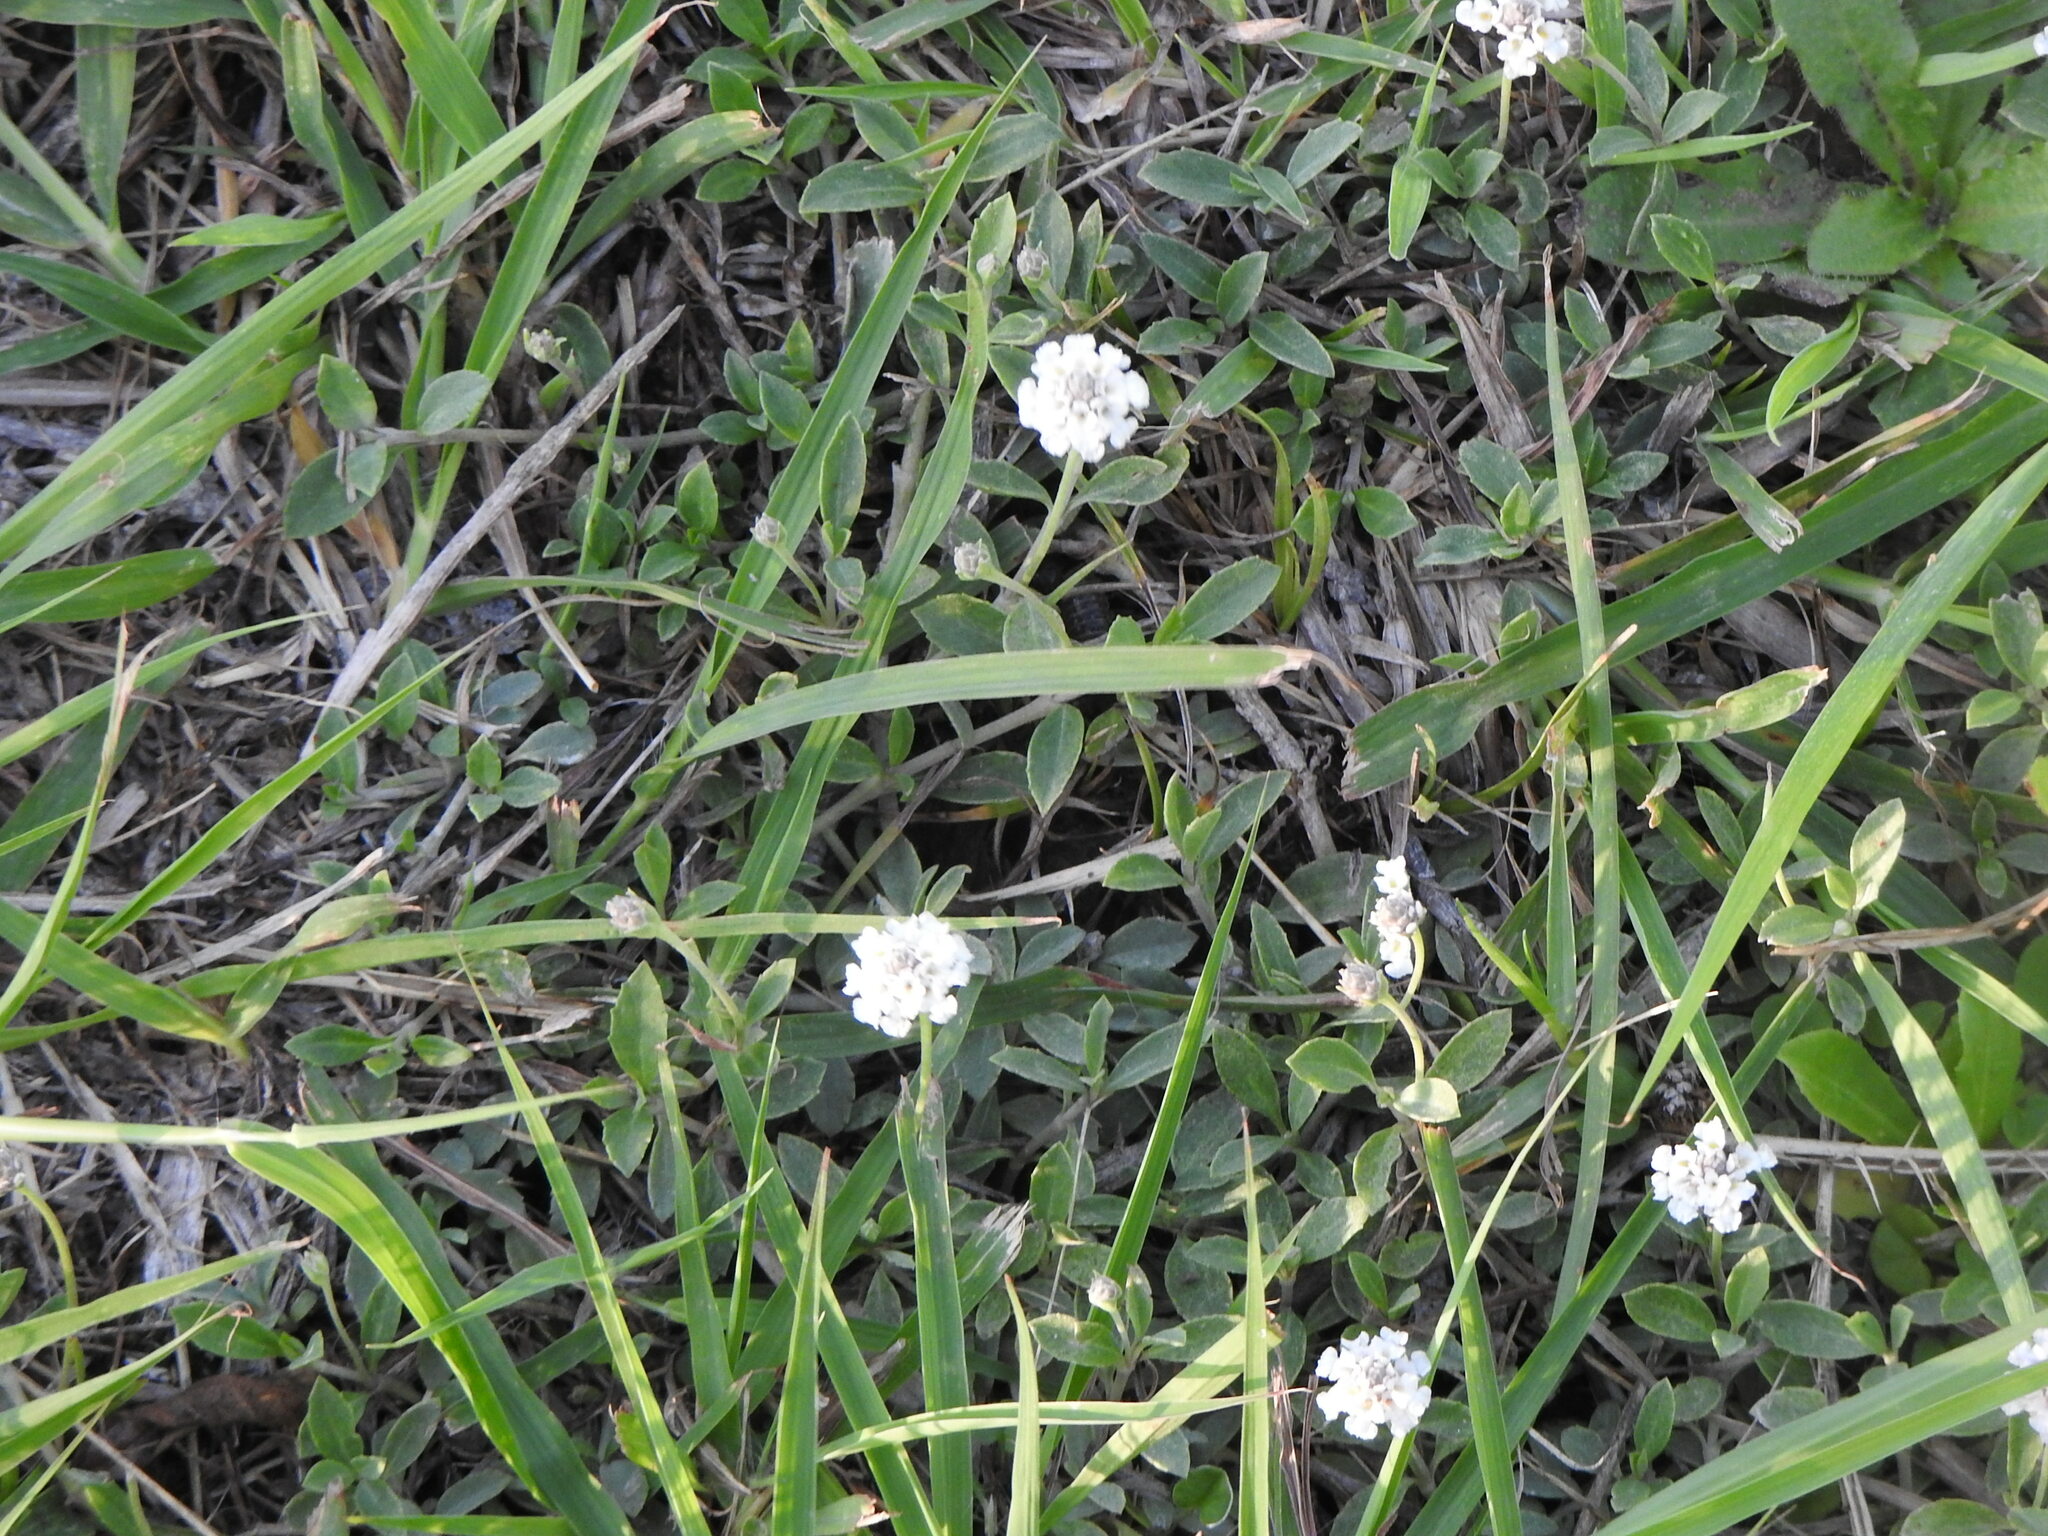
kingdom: Plantae
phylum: Tracheophyta
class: Magnoliopsida
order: Lamiales
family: Verbenaceae
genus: Phyla
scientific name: Phyla nodiflora
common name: Frogfruit
